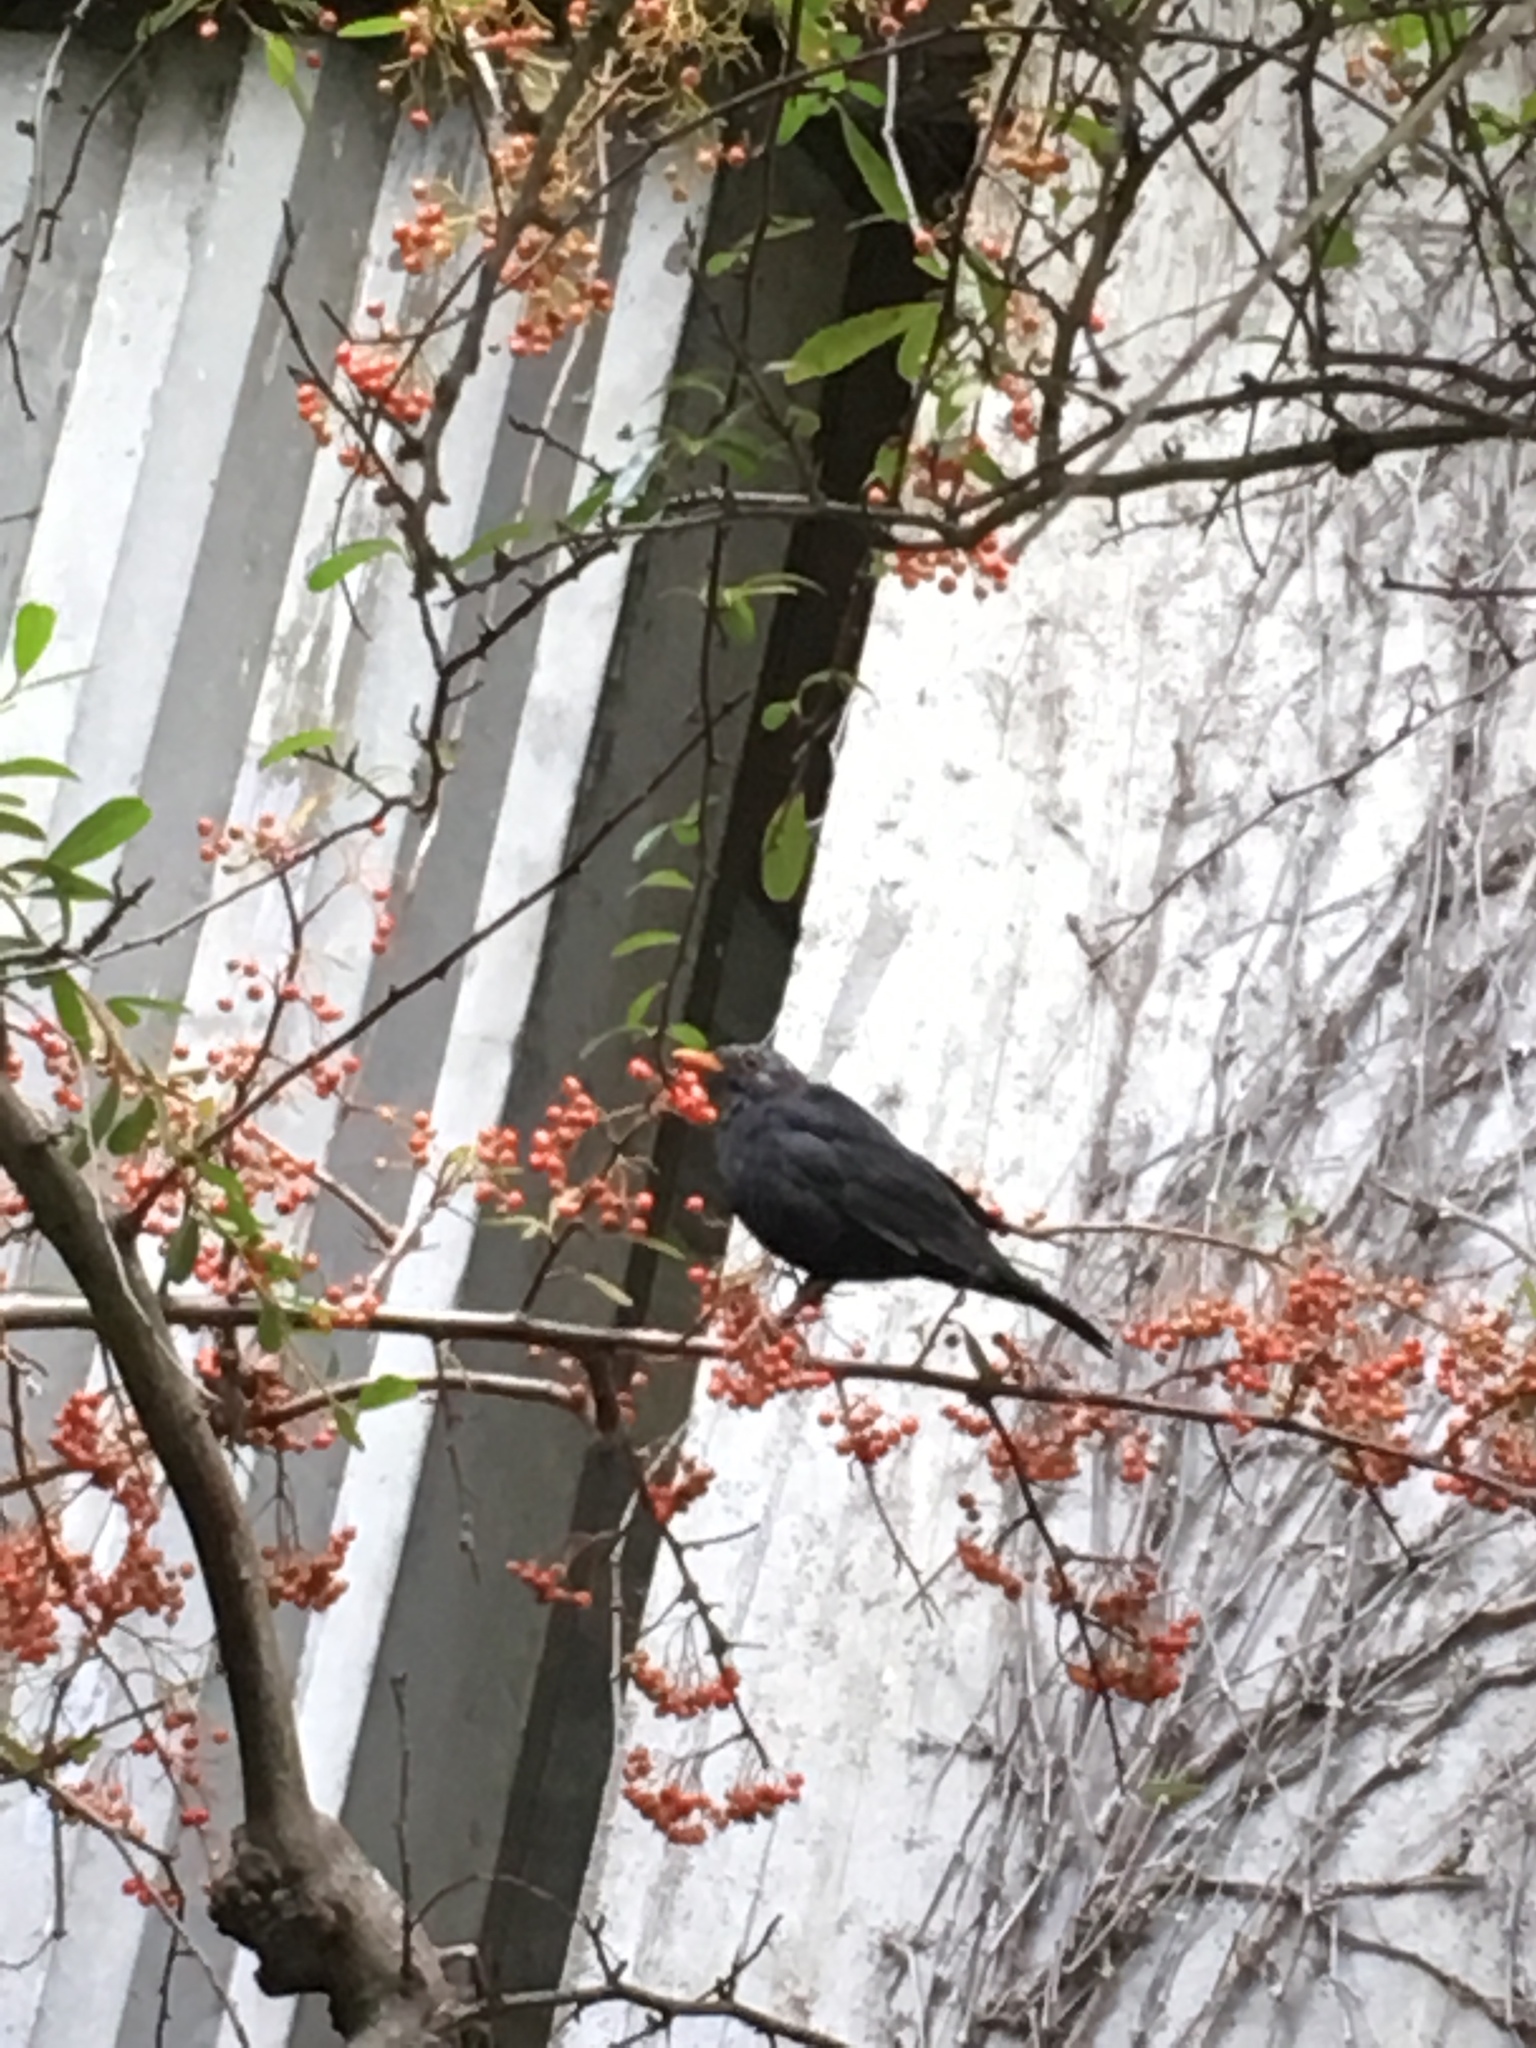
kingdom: Animalia
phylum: Chordata
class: Aves
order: Passeriformes
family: Turdidae
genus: Turdus
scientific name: Turdus merula
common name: Common blackbird
